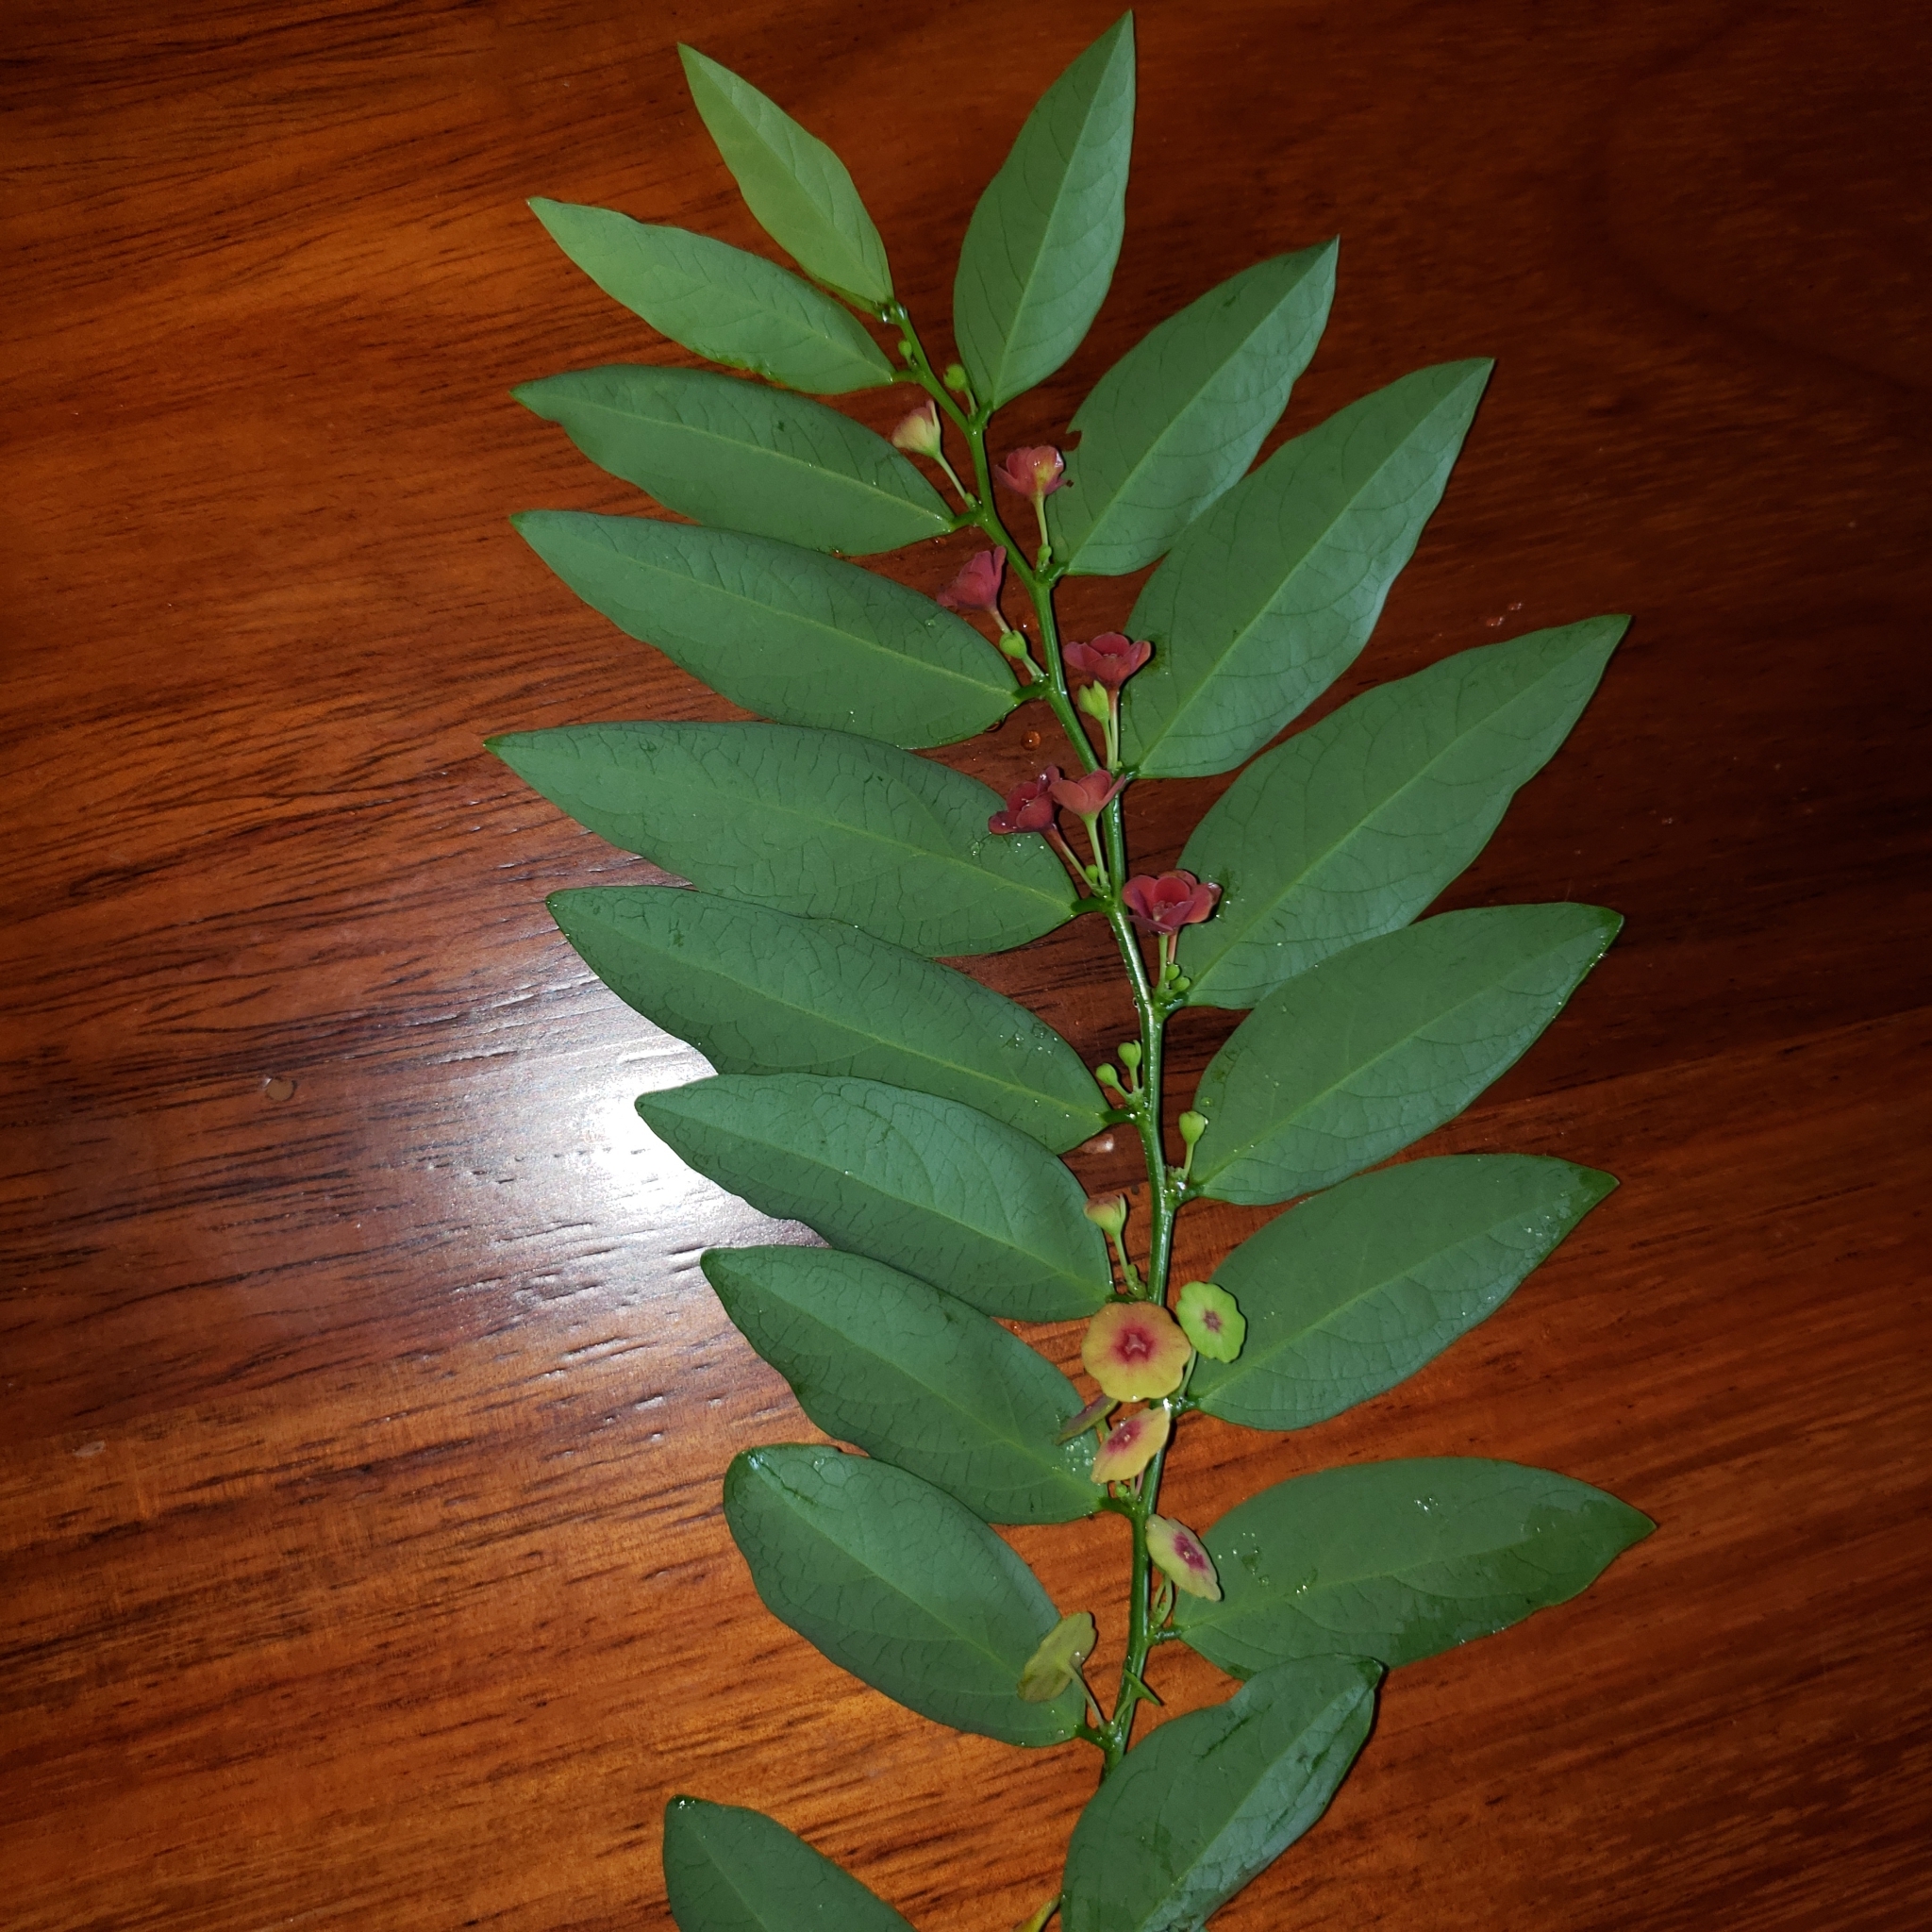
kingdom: Plantae
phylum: Tracheophyta
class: Magnoliopsida
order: Malpighiales
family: Phyllanthaceae
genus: Breynia
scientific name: Breynia androgyna
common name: Star gooseberry
